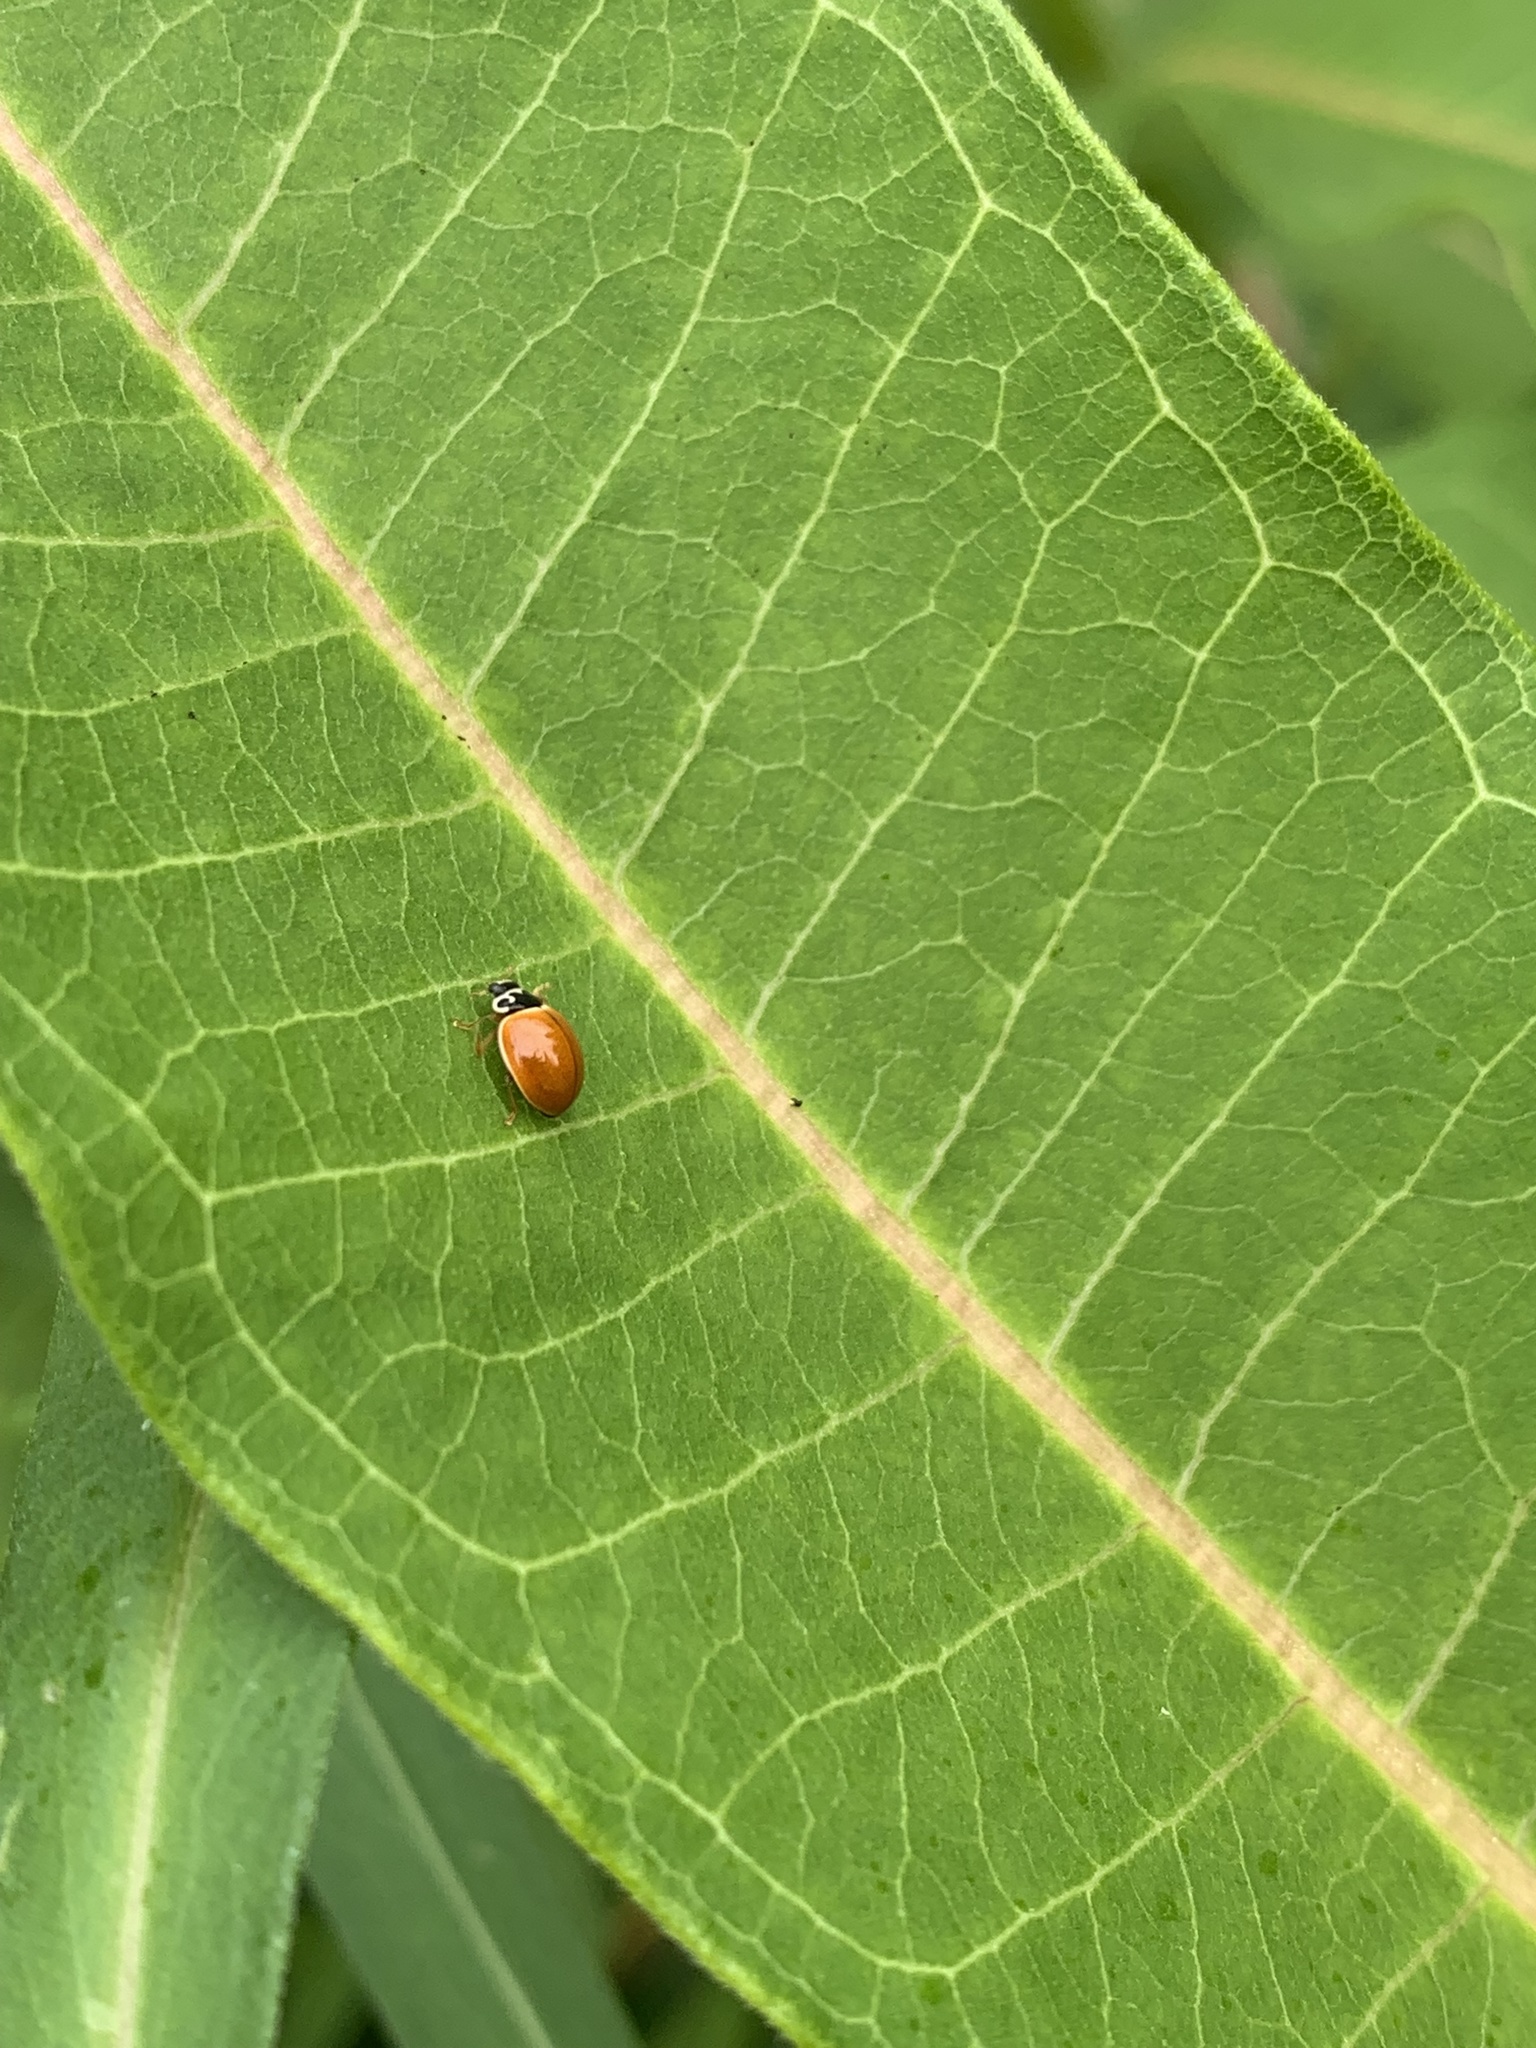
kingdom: Animalia
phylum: Arthropoda
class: Insecta
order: Coleoptera
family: Coccinellidae
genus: Cycloneda
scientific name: Cycloneda munda
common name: Polished lady beetle
